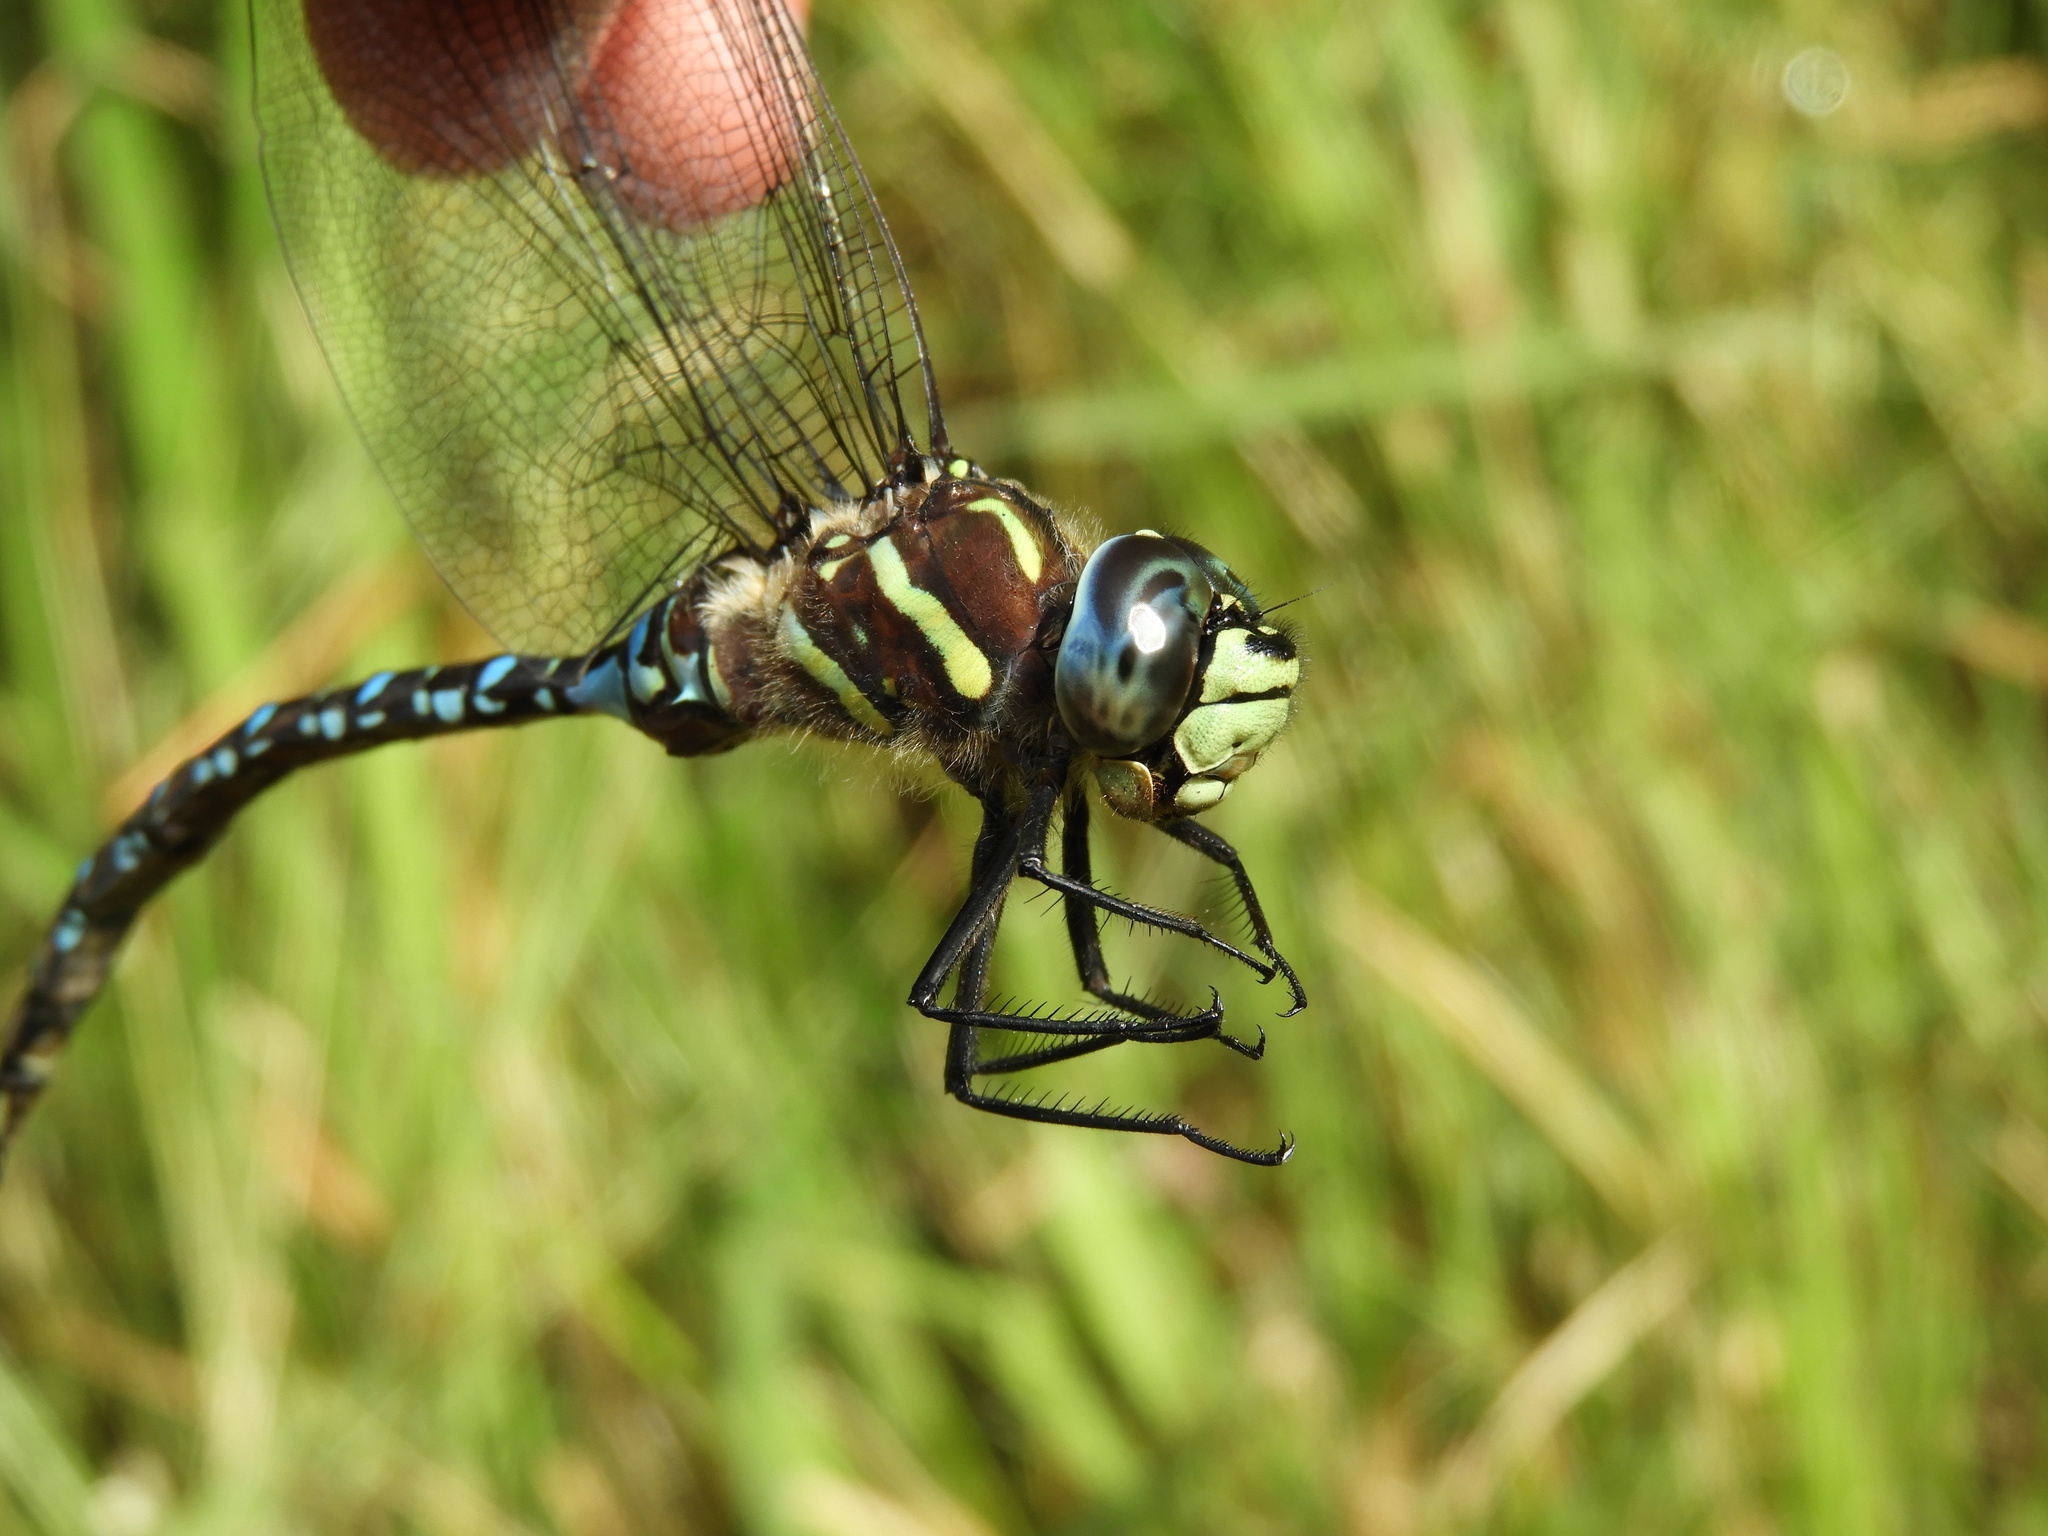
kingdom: Animalia
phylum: Arthropoda
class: Insecta
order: Odonata
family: Aeshnidae
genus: Aeshna
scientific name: Aeshna palmata
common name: Paddle-tailed darner
